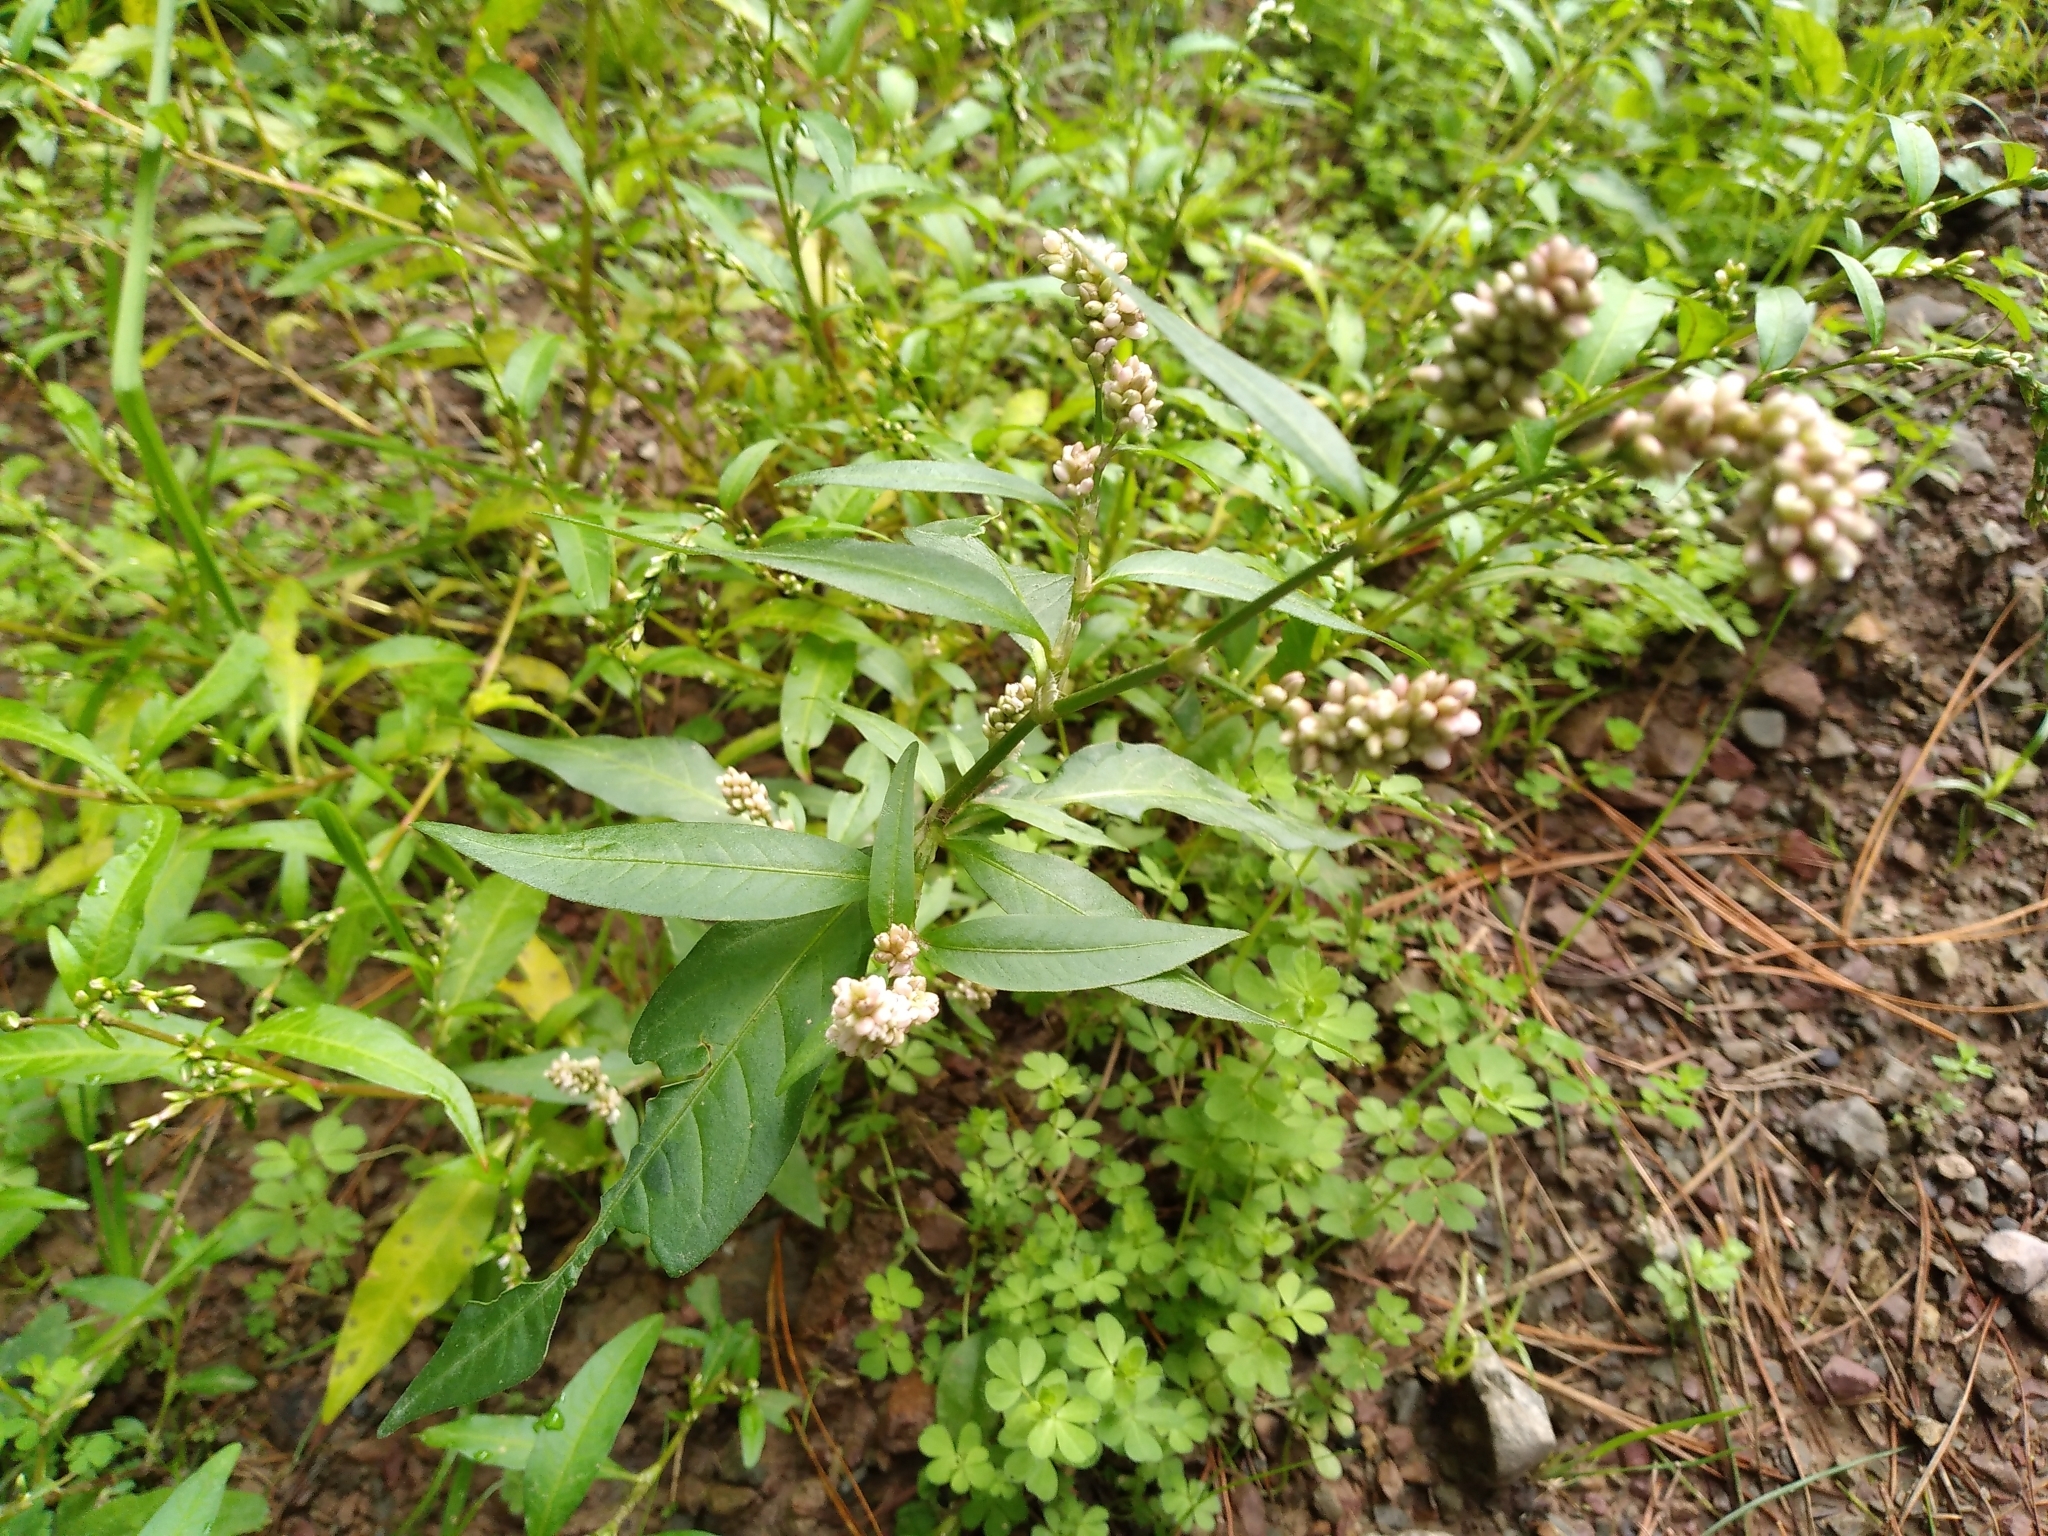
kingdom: Plantae
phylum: Tracheophyta
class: Magnoliopsida
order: Caryophyllales
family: Polygonaceae
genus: Persicaria
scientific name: Persicaria maculosa
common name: Redshank
